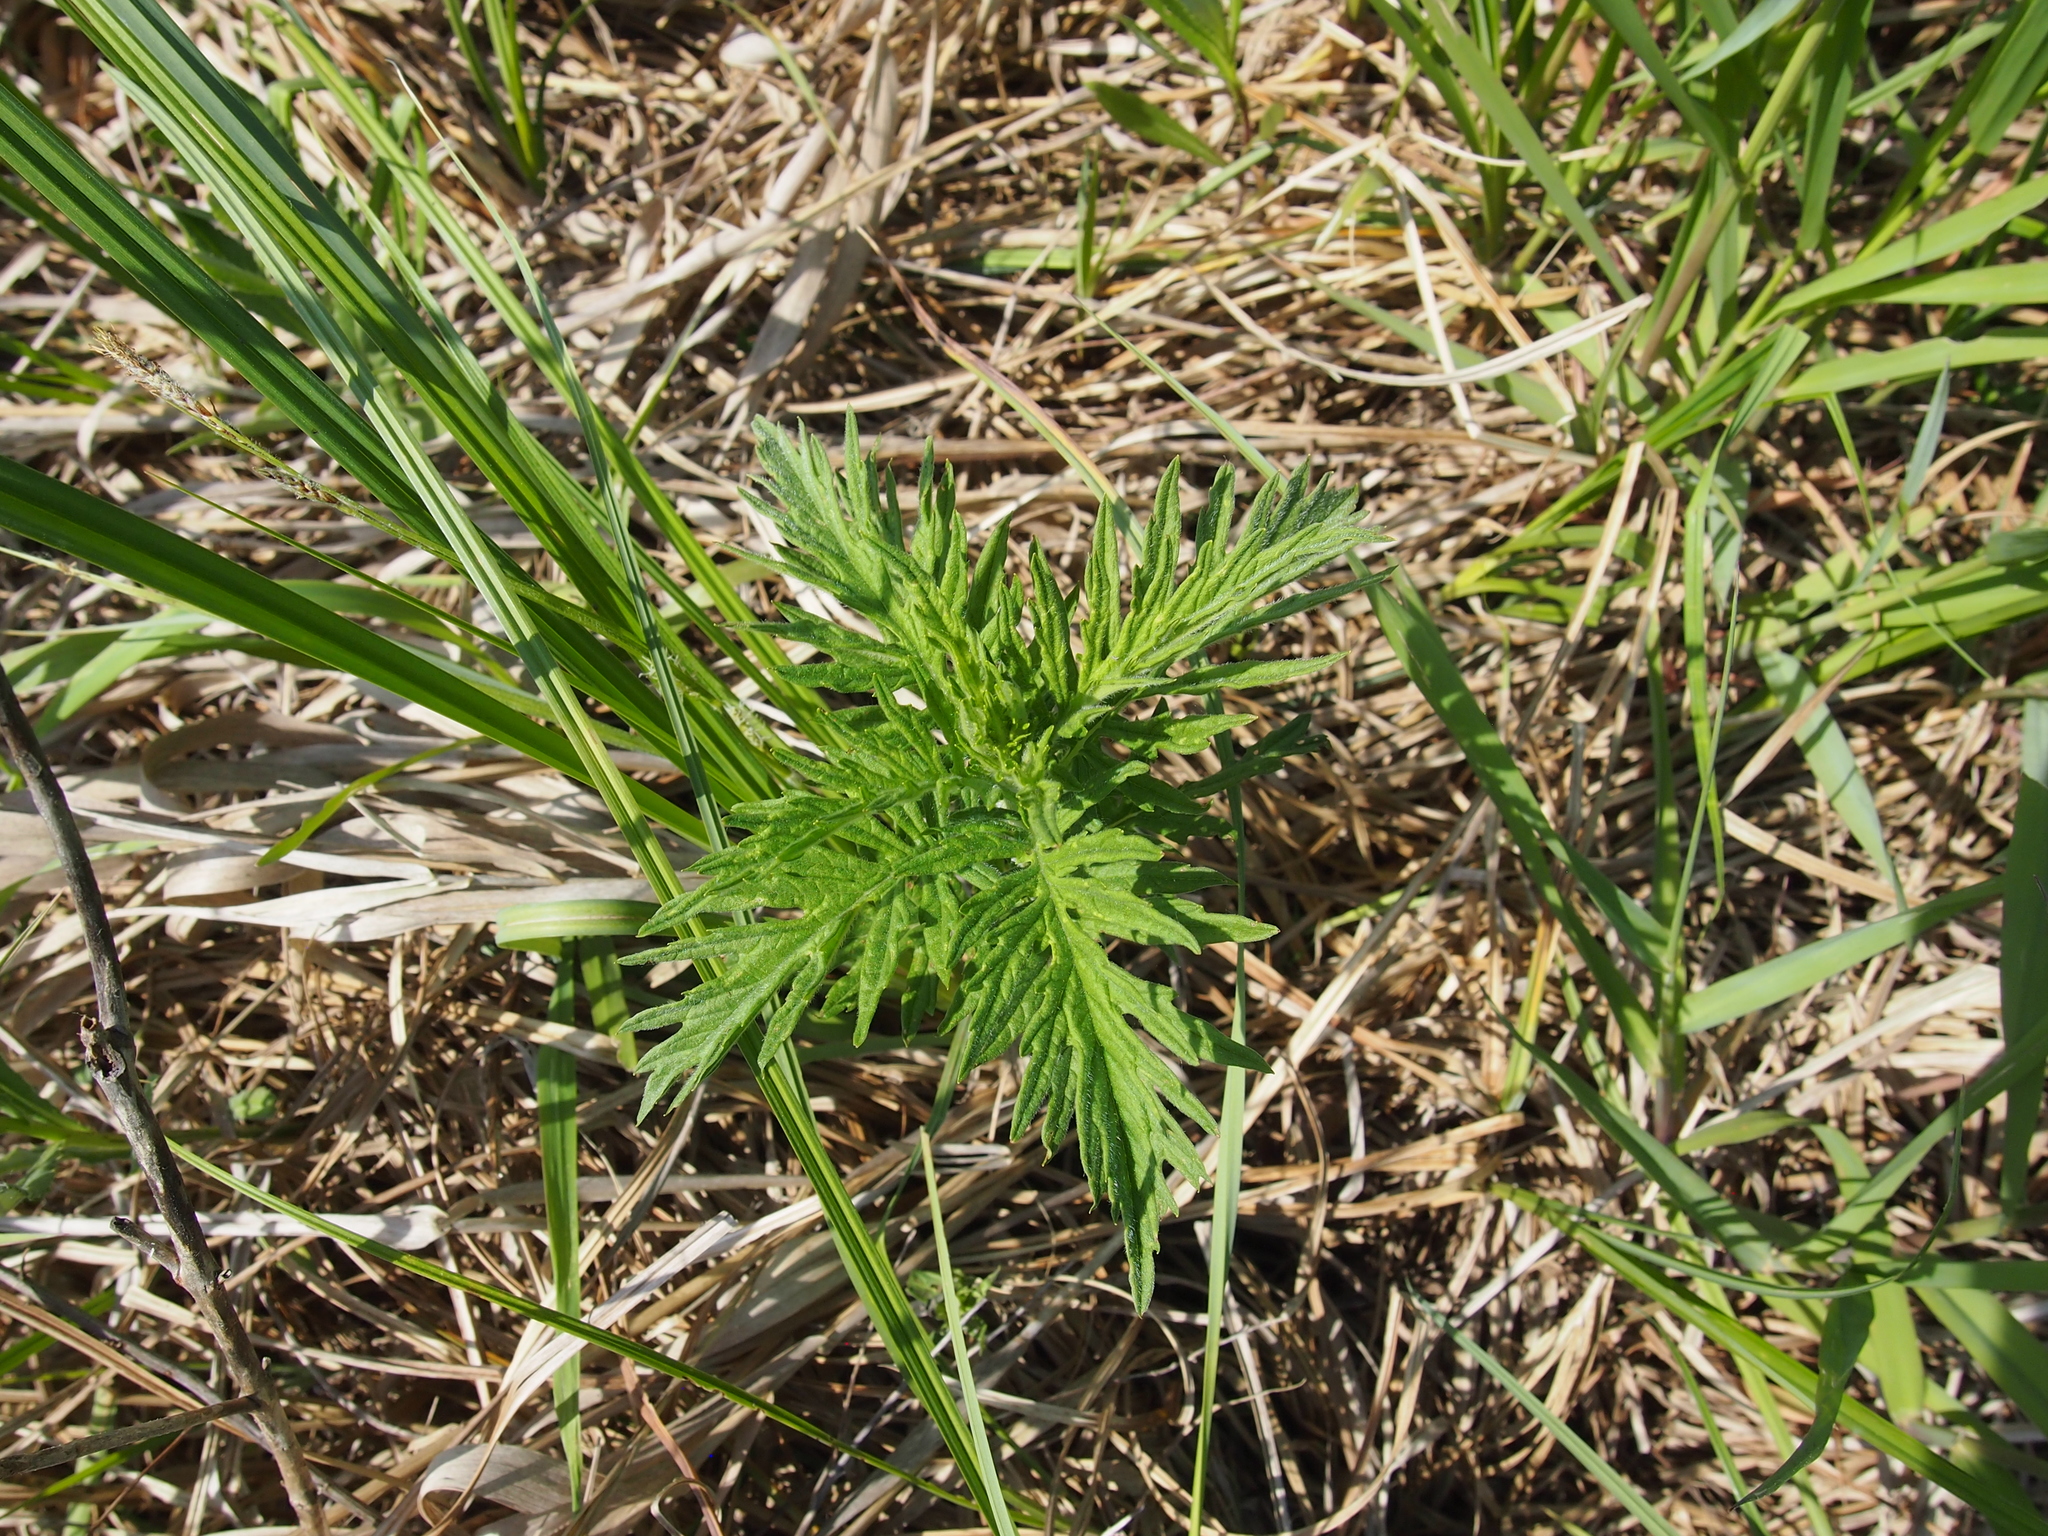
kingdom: Plantae
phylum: Tracheophyta
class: Magnoliopsida
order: Lamiales
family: Lamiaceae
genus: Lycopus
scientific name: Lycopus exaltatus
